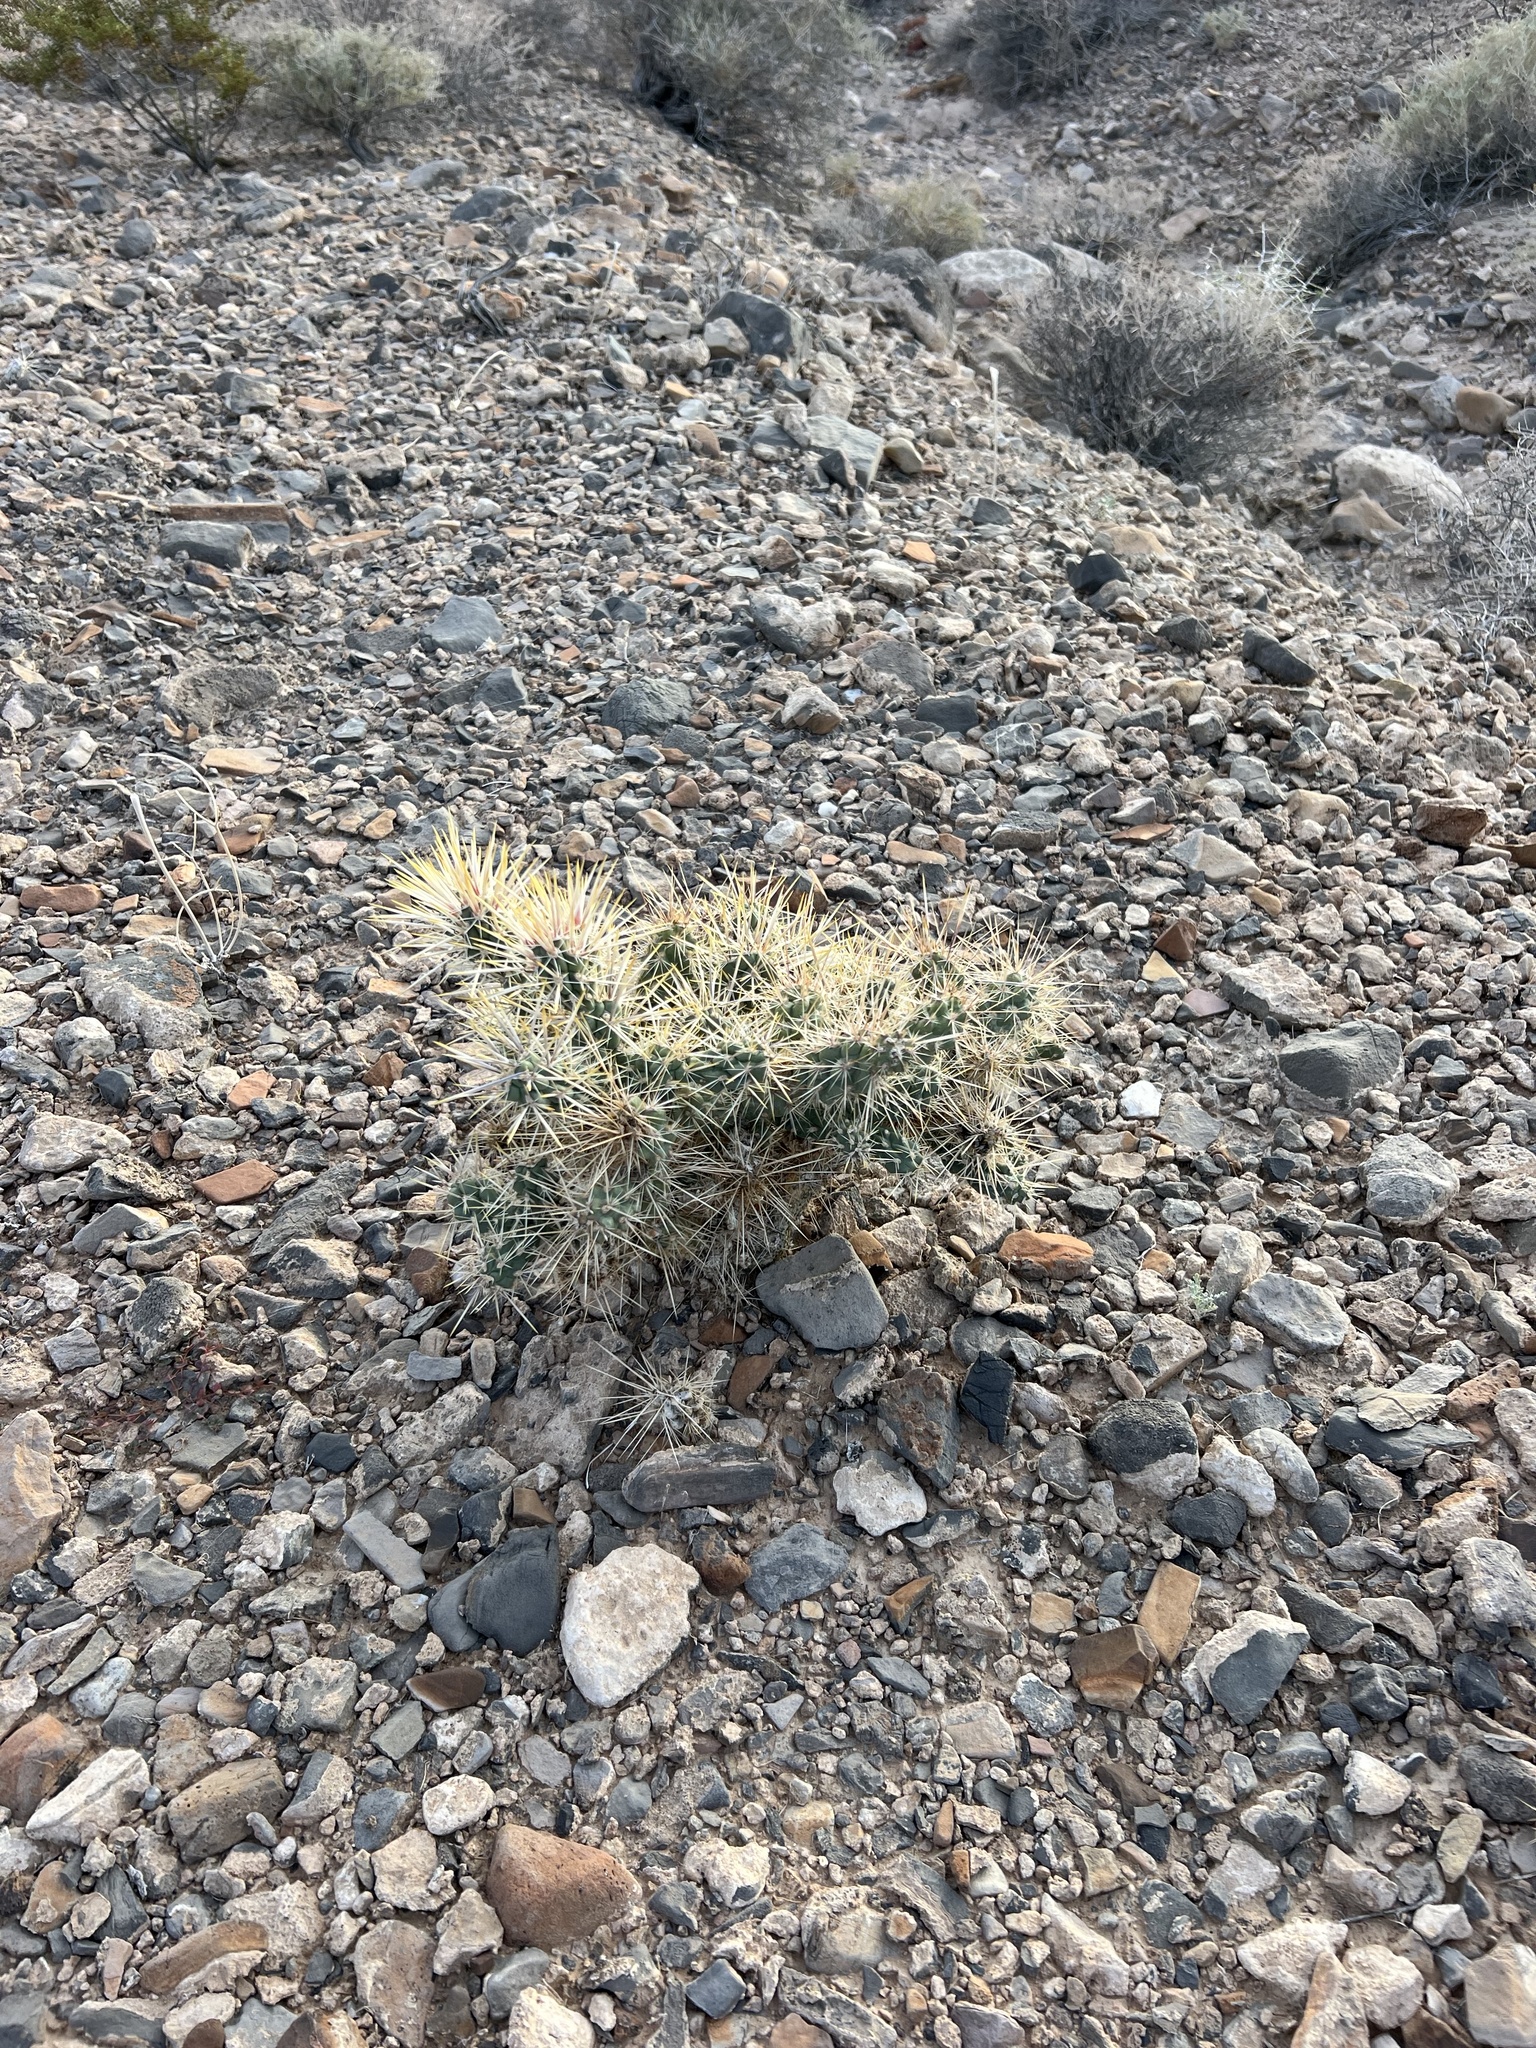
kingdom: Plantae
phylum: Tracheophyta
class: Magnoliopsida
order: Caryophyllales
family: Cactaceae
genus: Cylindropuntia
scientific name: Cylindropuntia echinocarpa
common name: Ground cholla
